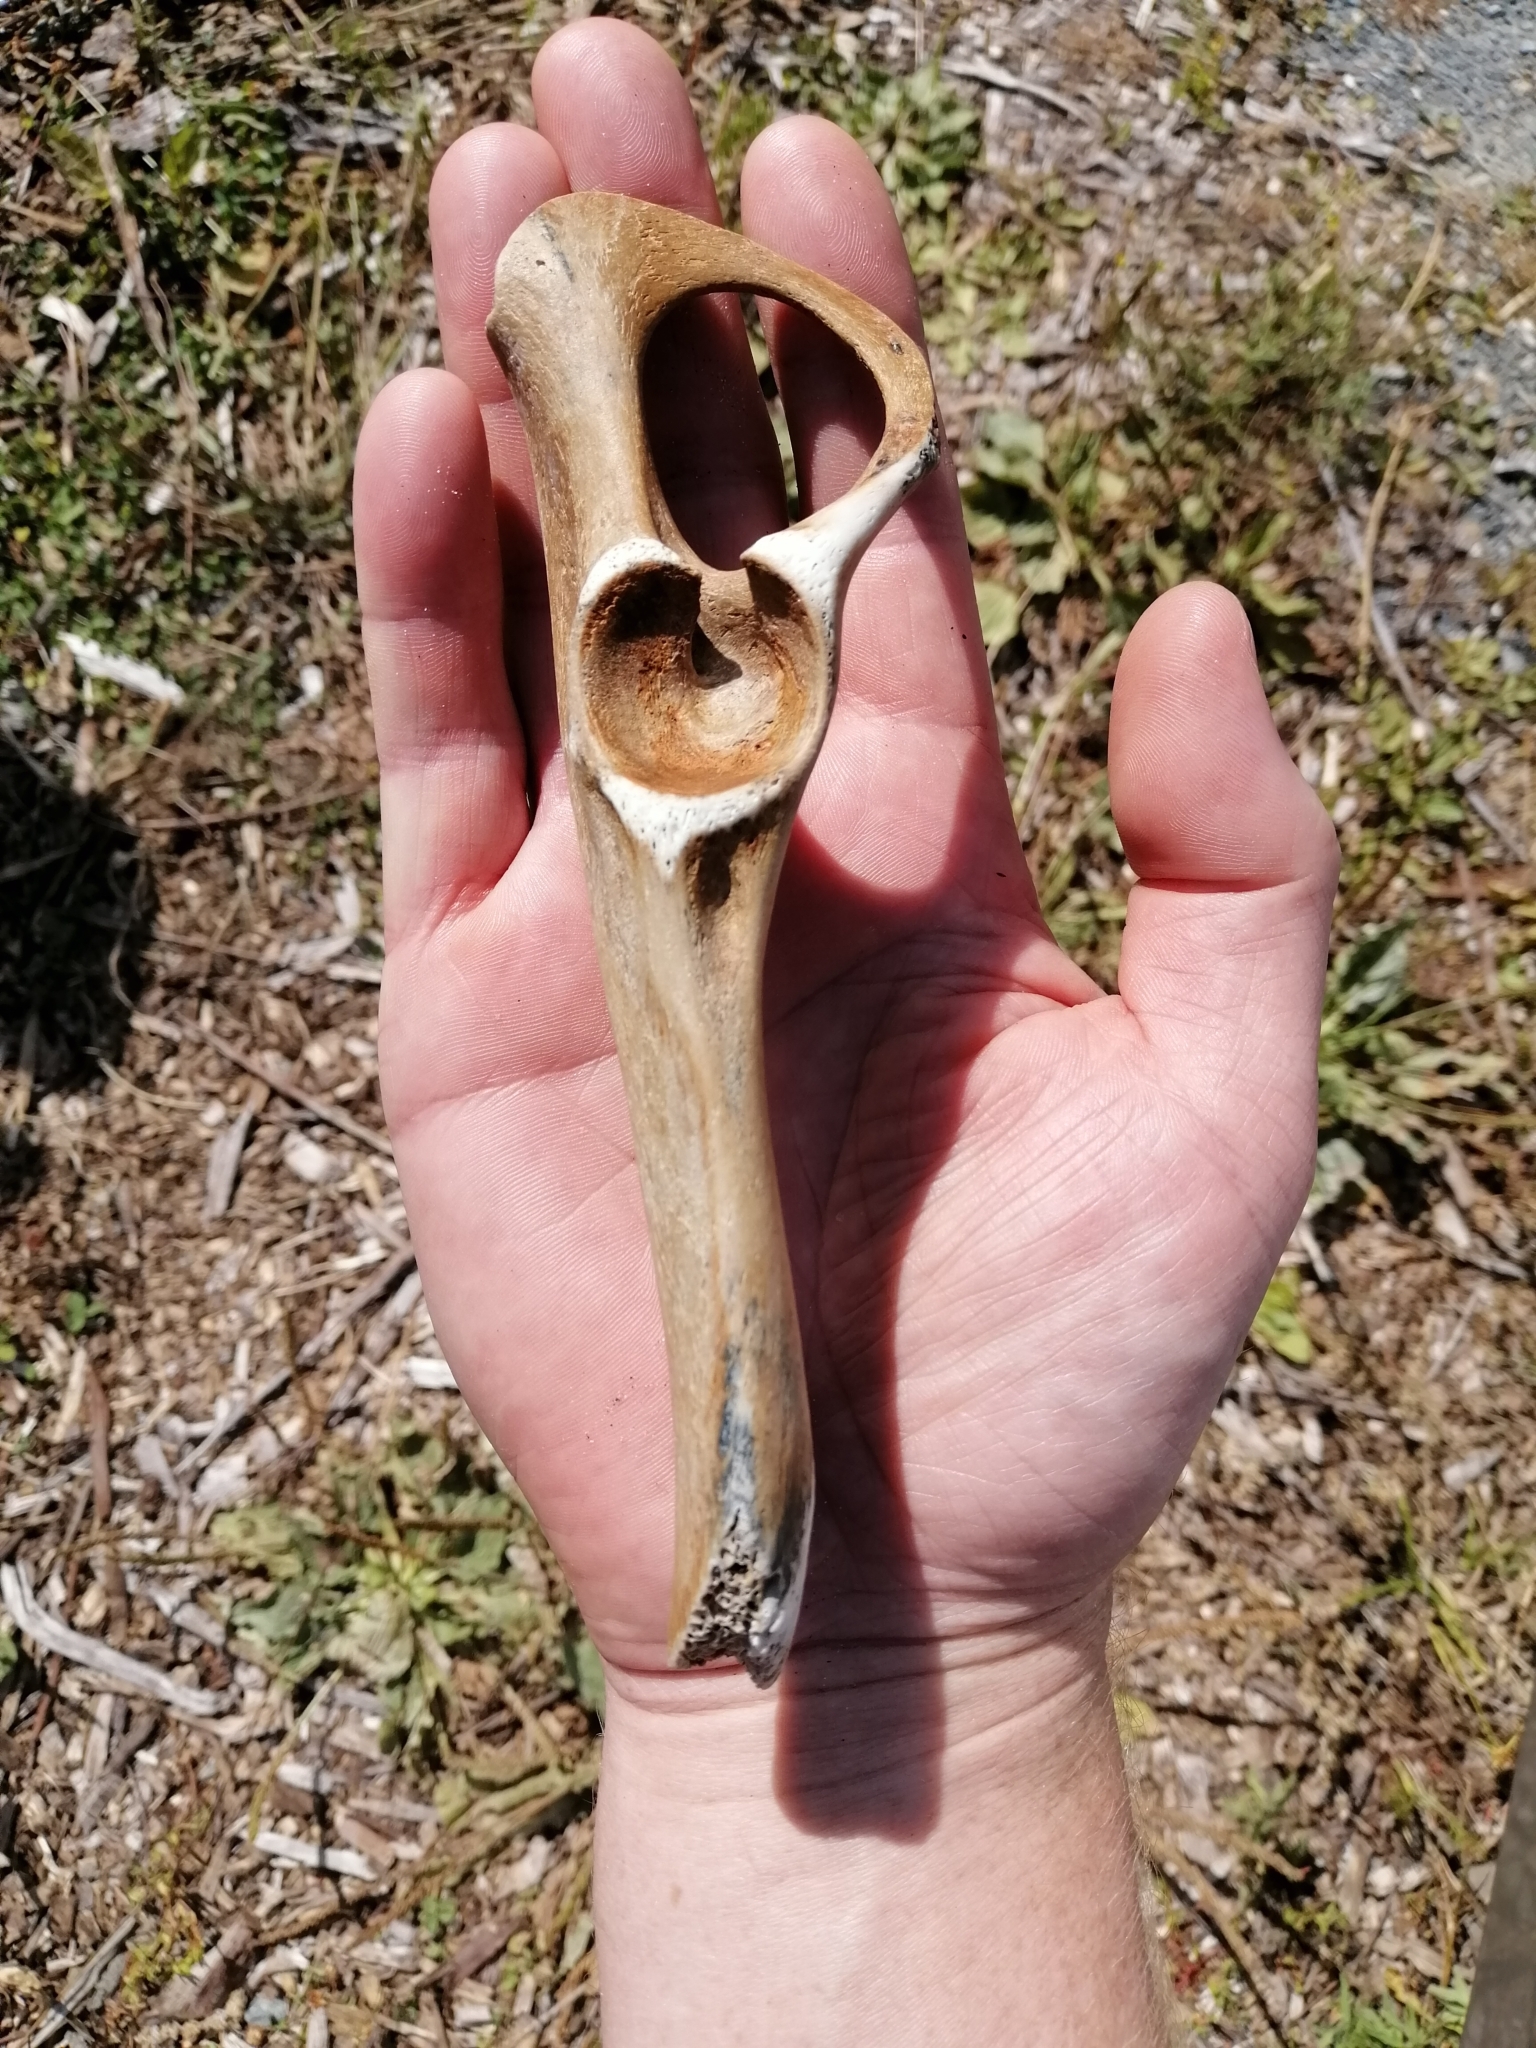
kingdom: Animalia
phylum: Chordata
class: Mammalia
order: Artiodactyla
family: Bovidae
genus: Ovis
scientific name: Ovis aries
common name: Domestic sheep
